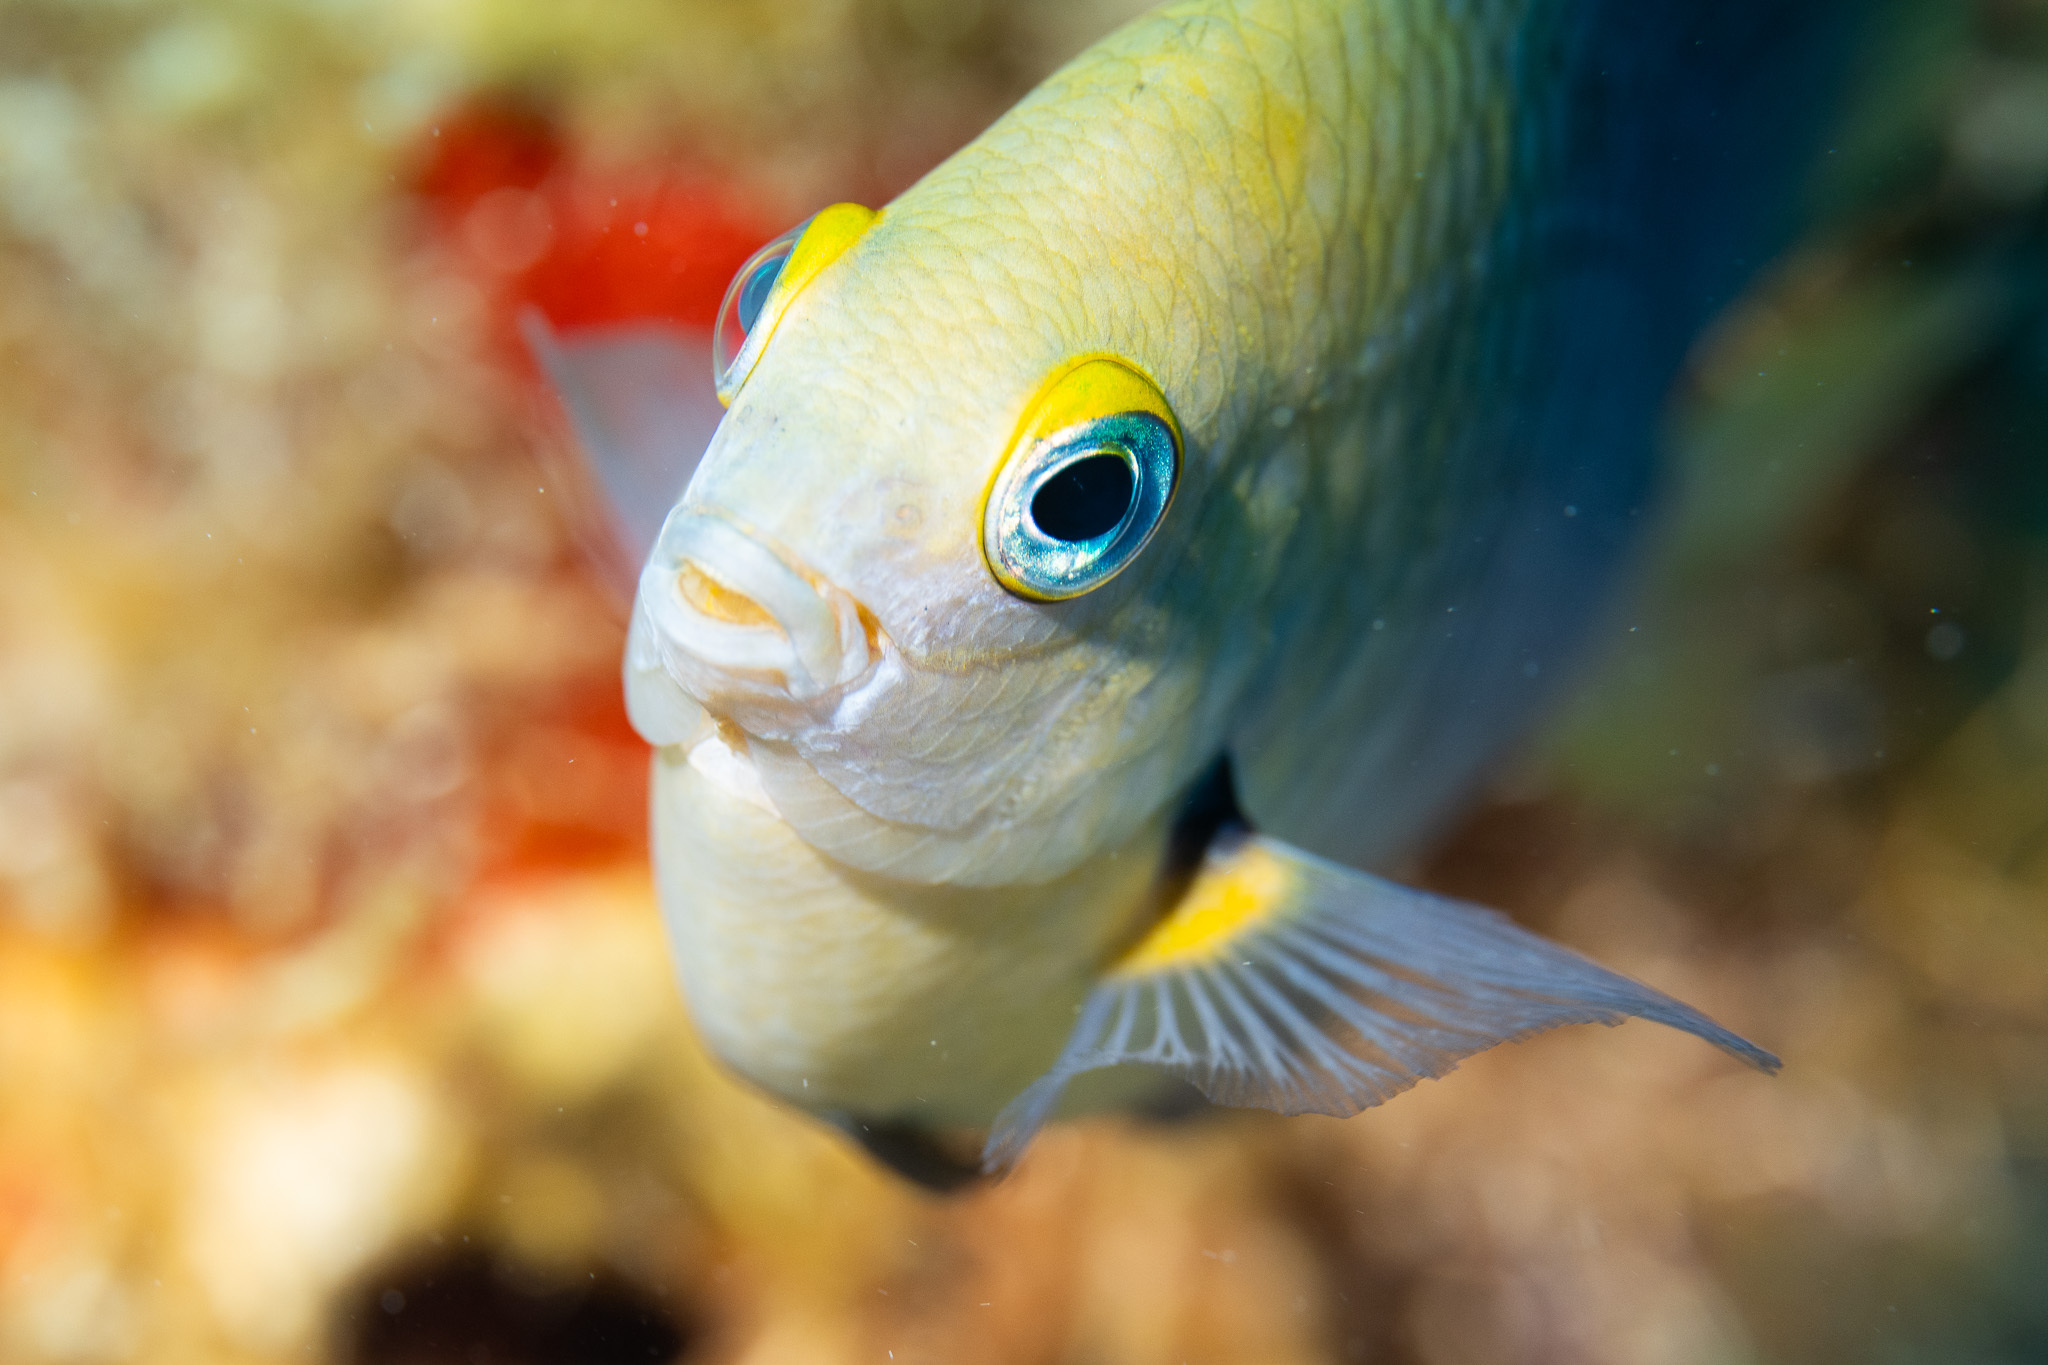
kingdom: Animalia
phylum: Chordata
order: Perciformes
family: Pomacentridae
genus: Stegastes
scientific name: Stegastes planifrons
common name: Threespot damselfish
